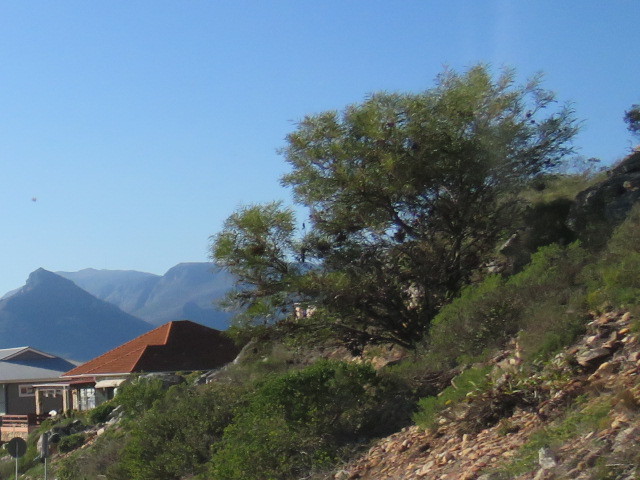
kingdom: Fungi
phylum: Basidiomycota
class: Pucciniomycetes
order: Pucciniales
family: Uromycladiaceae
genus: Uromycladium
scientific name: Uromycladium morrisii
